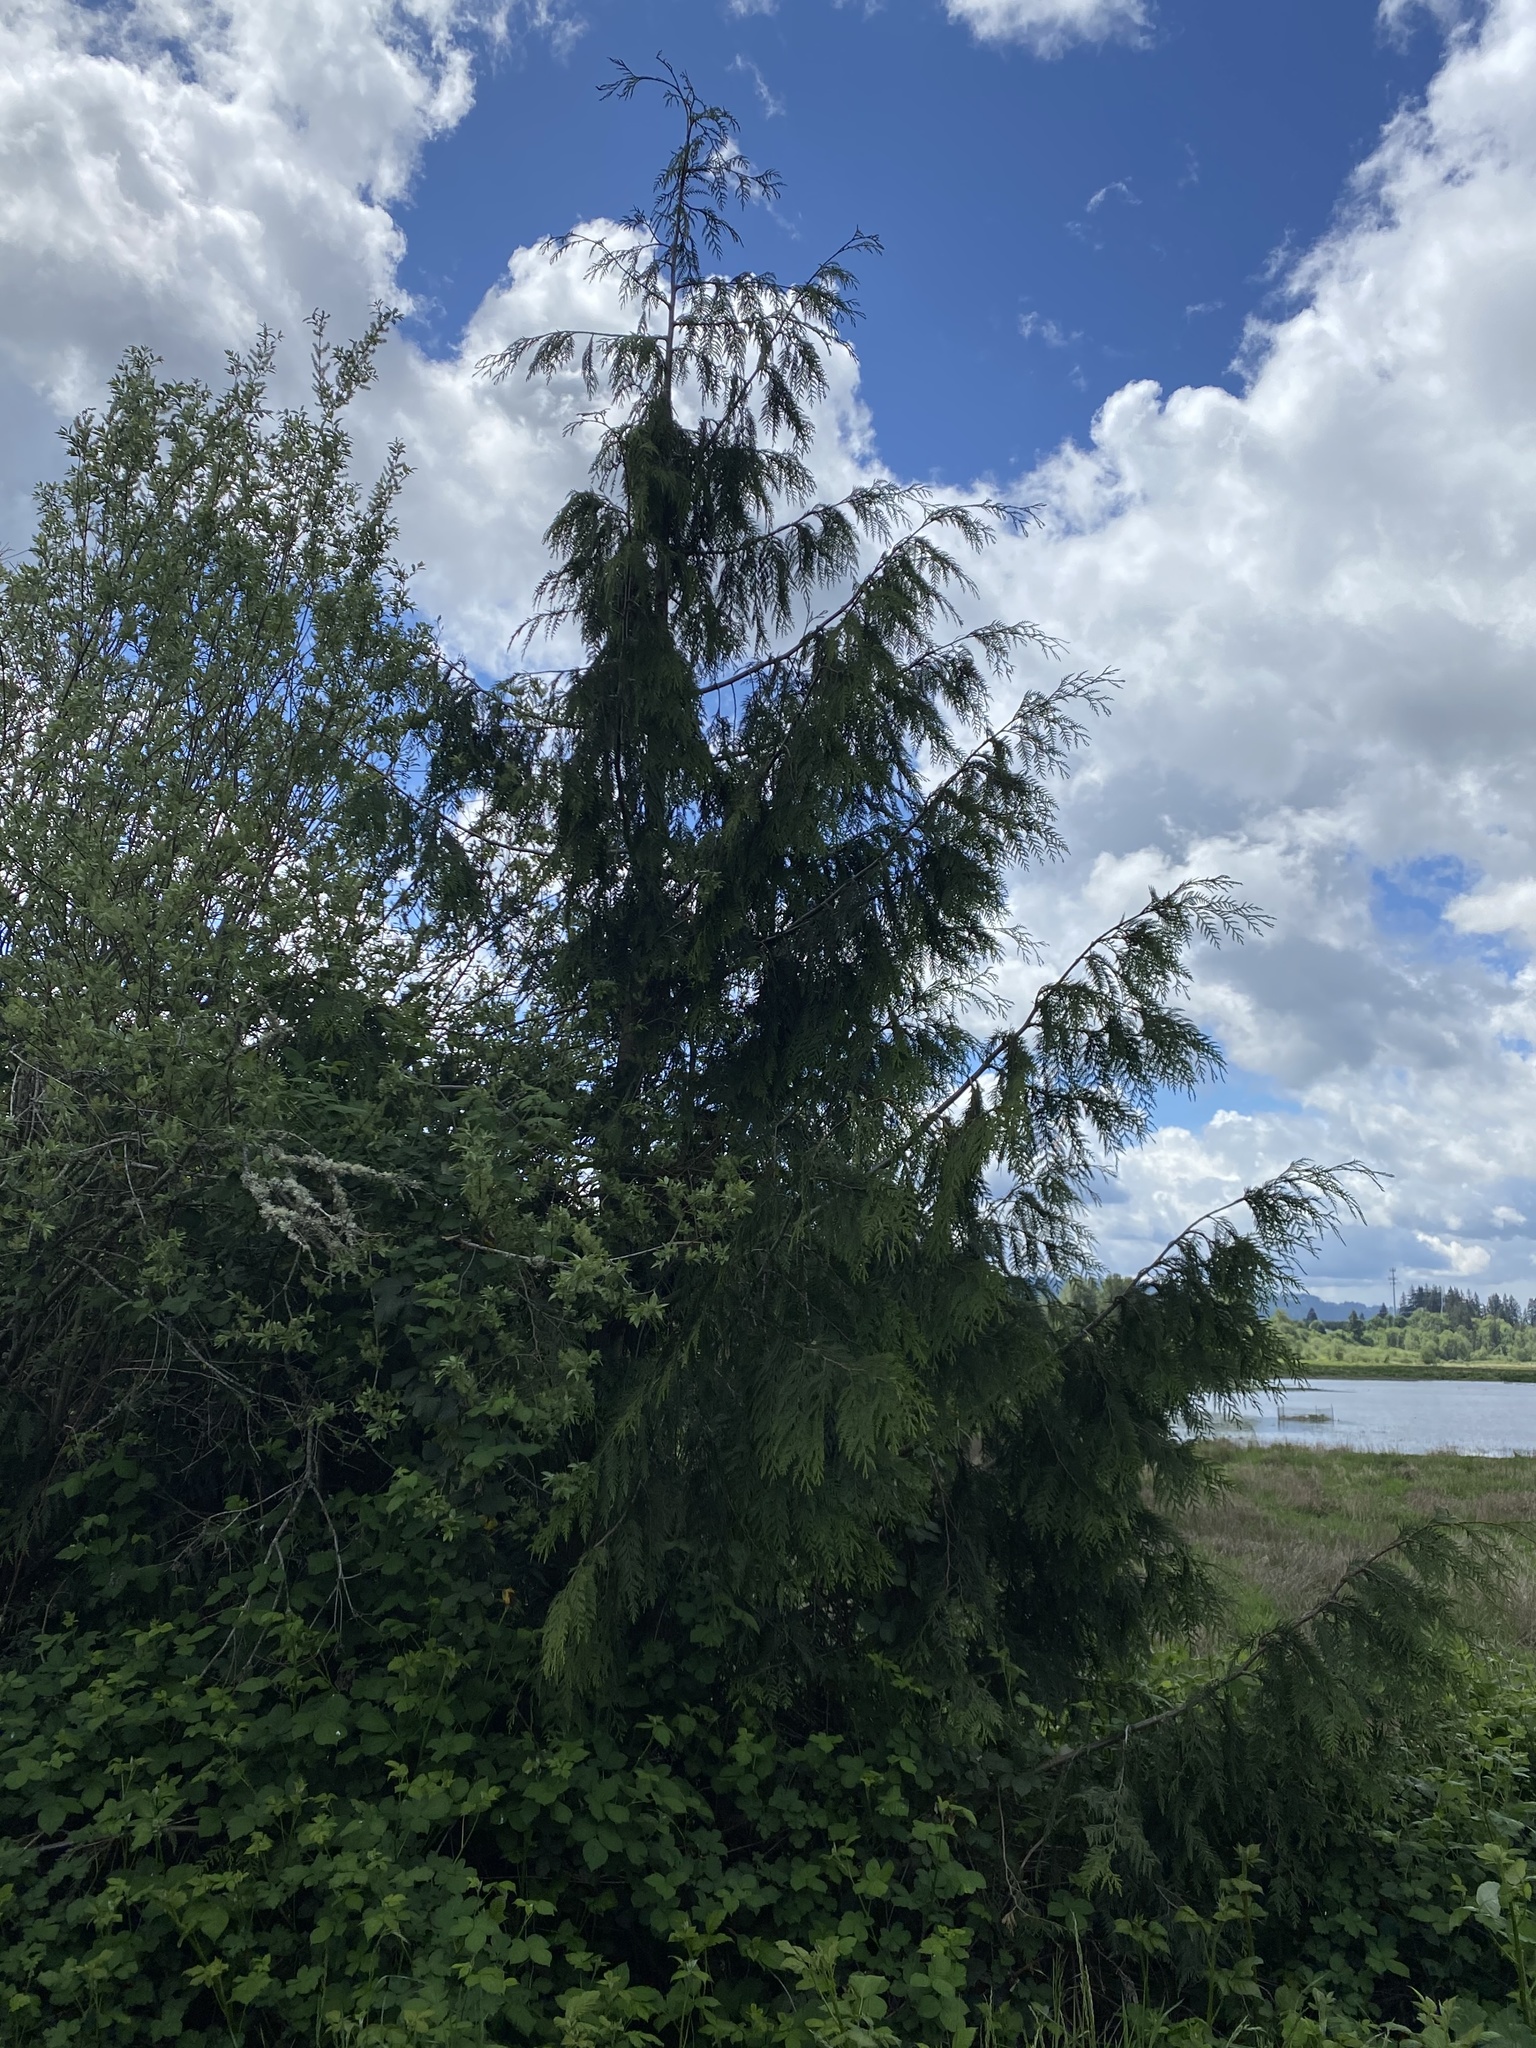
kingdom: Plantae
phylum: Tracheophyta
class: Pinopsida
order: Pinales
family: Cupressaceae
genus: Thuja
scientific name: Thuja plicata
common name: Western red-cedar
